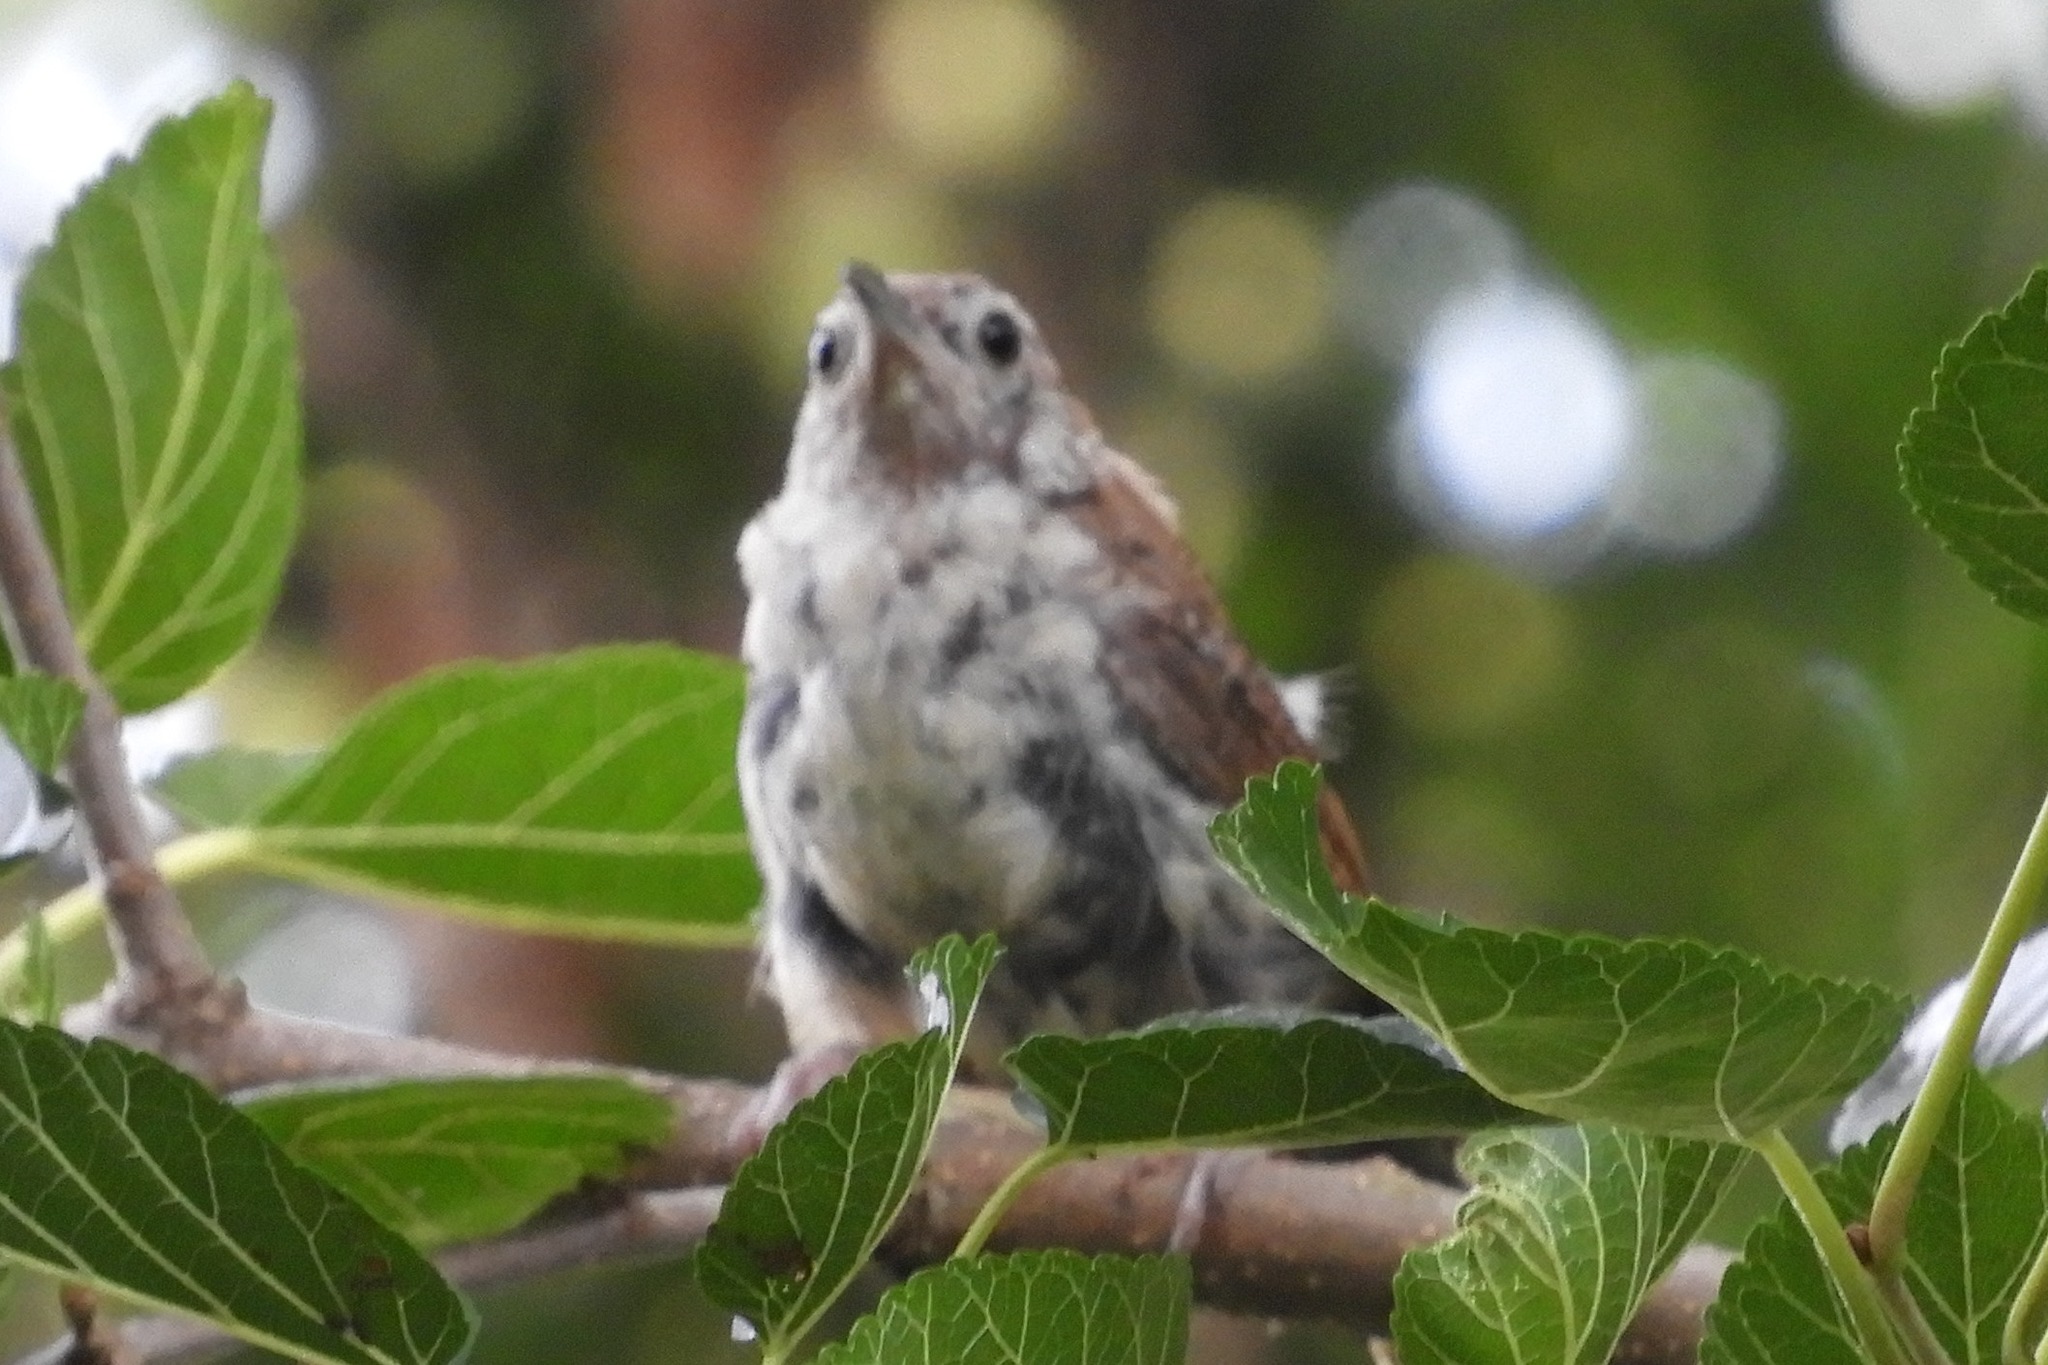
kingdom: Animalia
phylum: Chordata
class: Aves
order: Passeriformes
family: Troglodytidae
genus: Thryothorus
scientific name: Thryothorus ludovicianus
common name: Carolina wren
